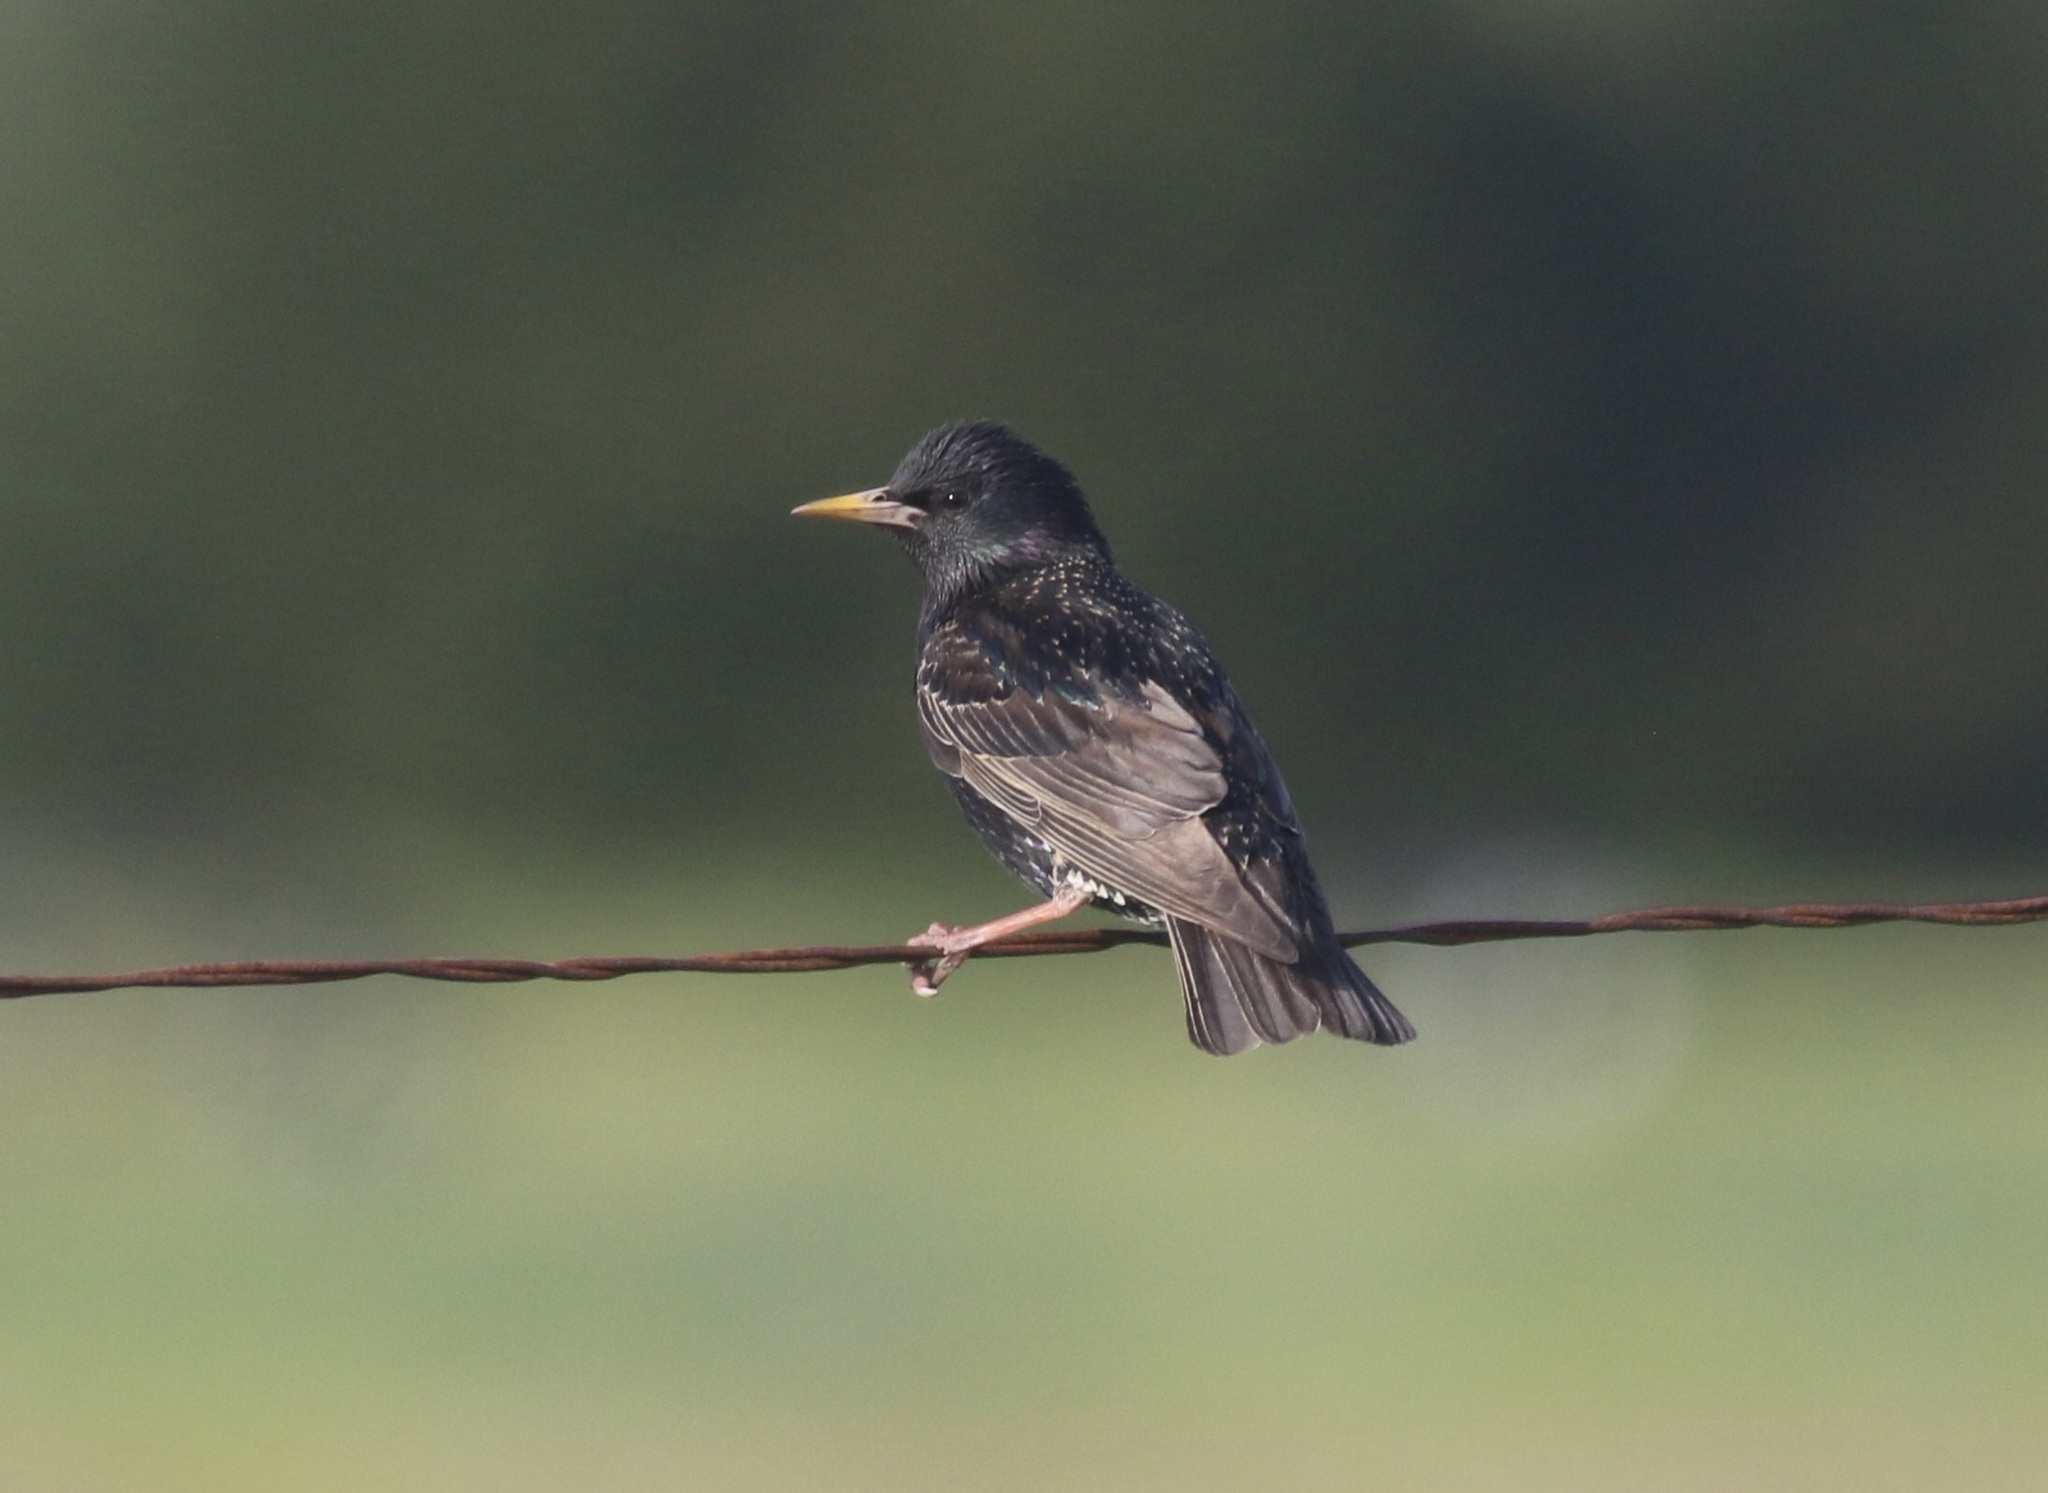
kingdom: Animalia
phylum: Chordata
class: Aves
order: Passeriformes
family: Sturnidae
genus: Sturnus
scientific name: Sturnus vulgaris
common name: Common starling
